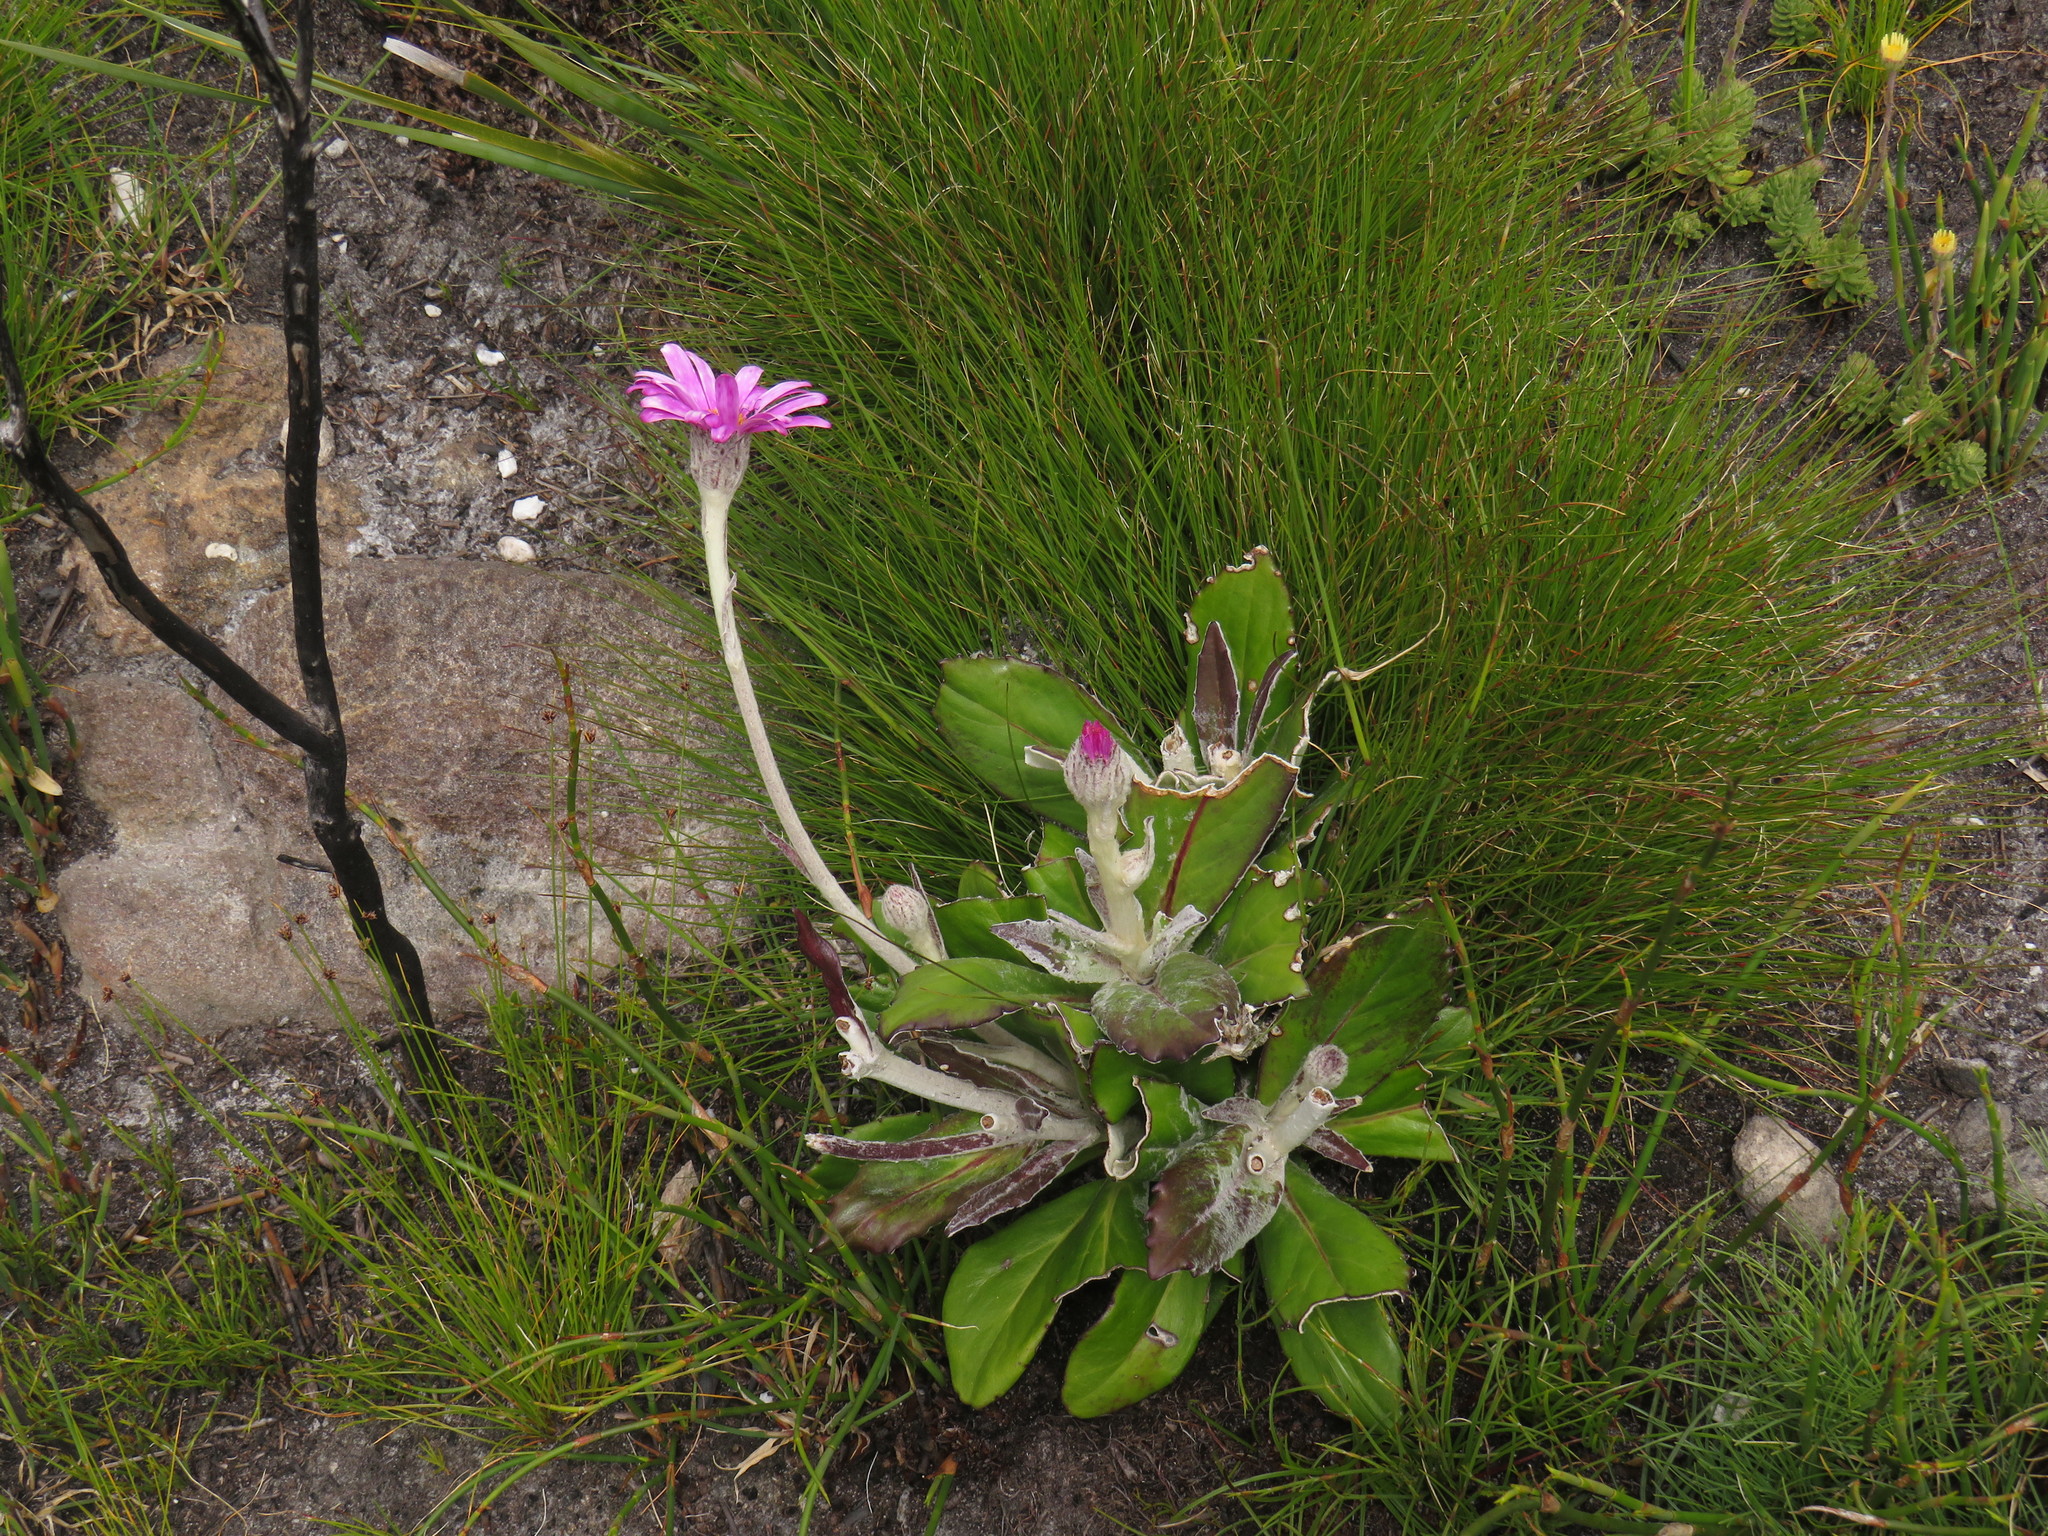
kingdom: Plantae
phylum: Tracheophyta
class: Magnoliopsida
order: Asterales
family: Asteraceae
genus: Mairia
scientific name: Mairia robusta
